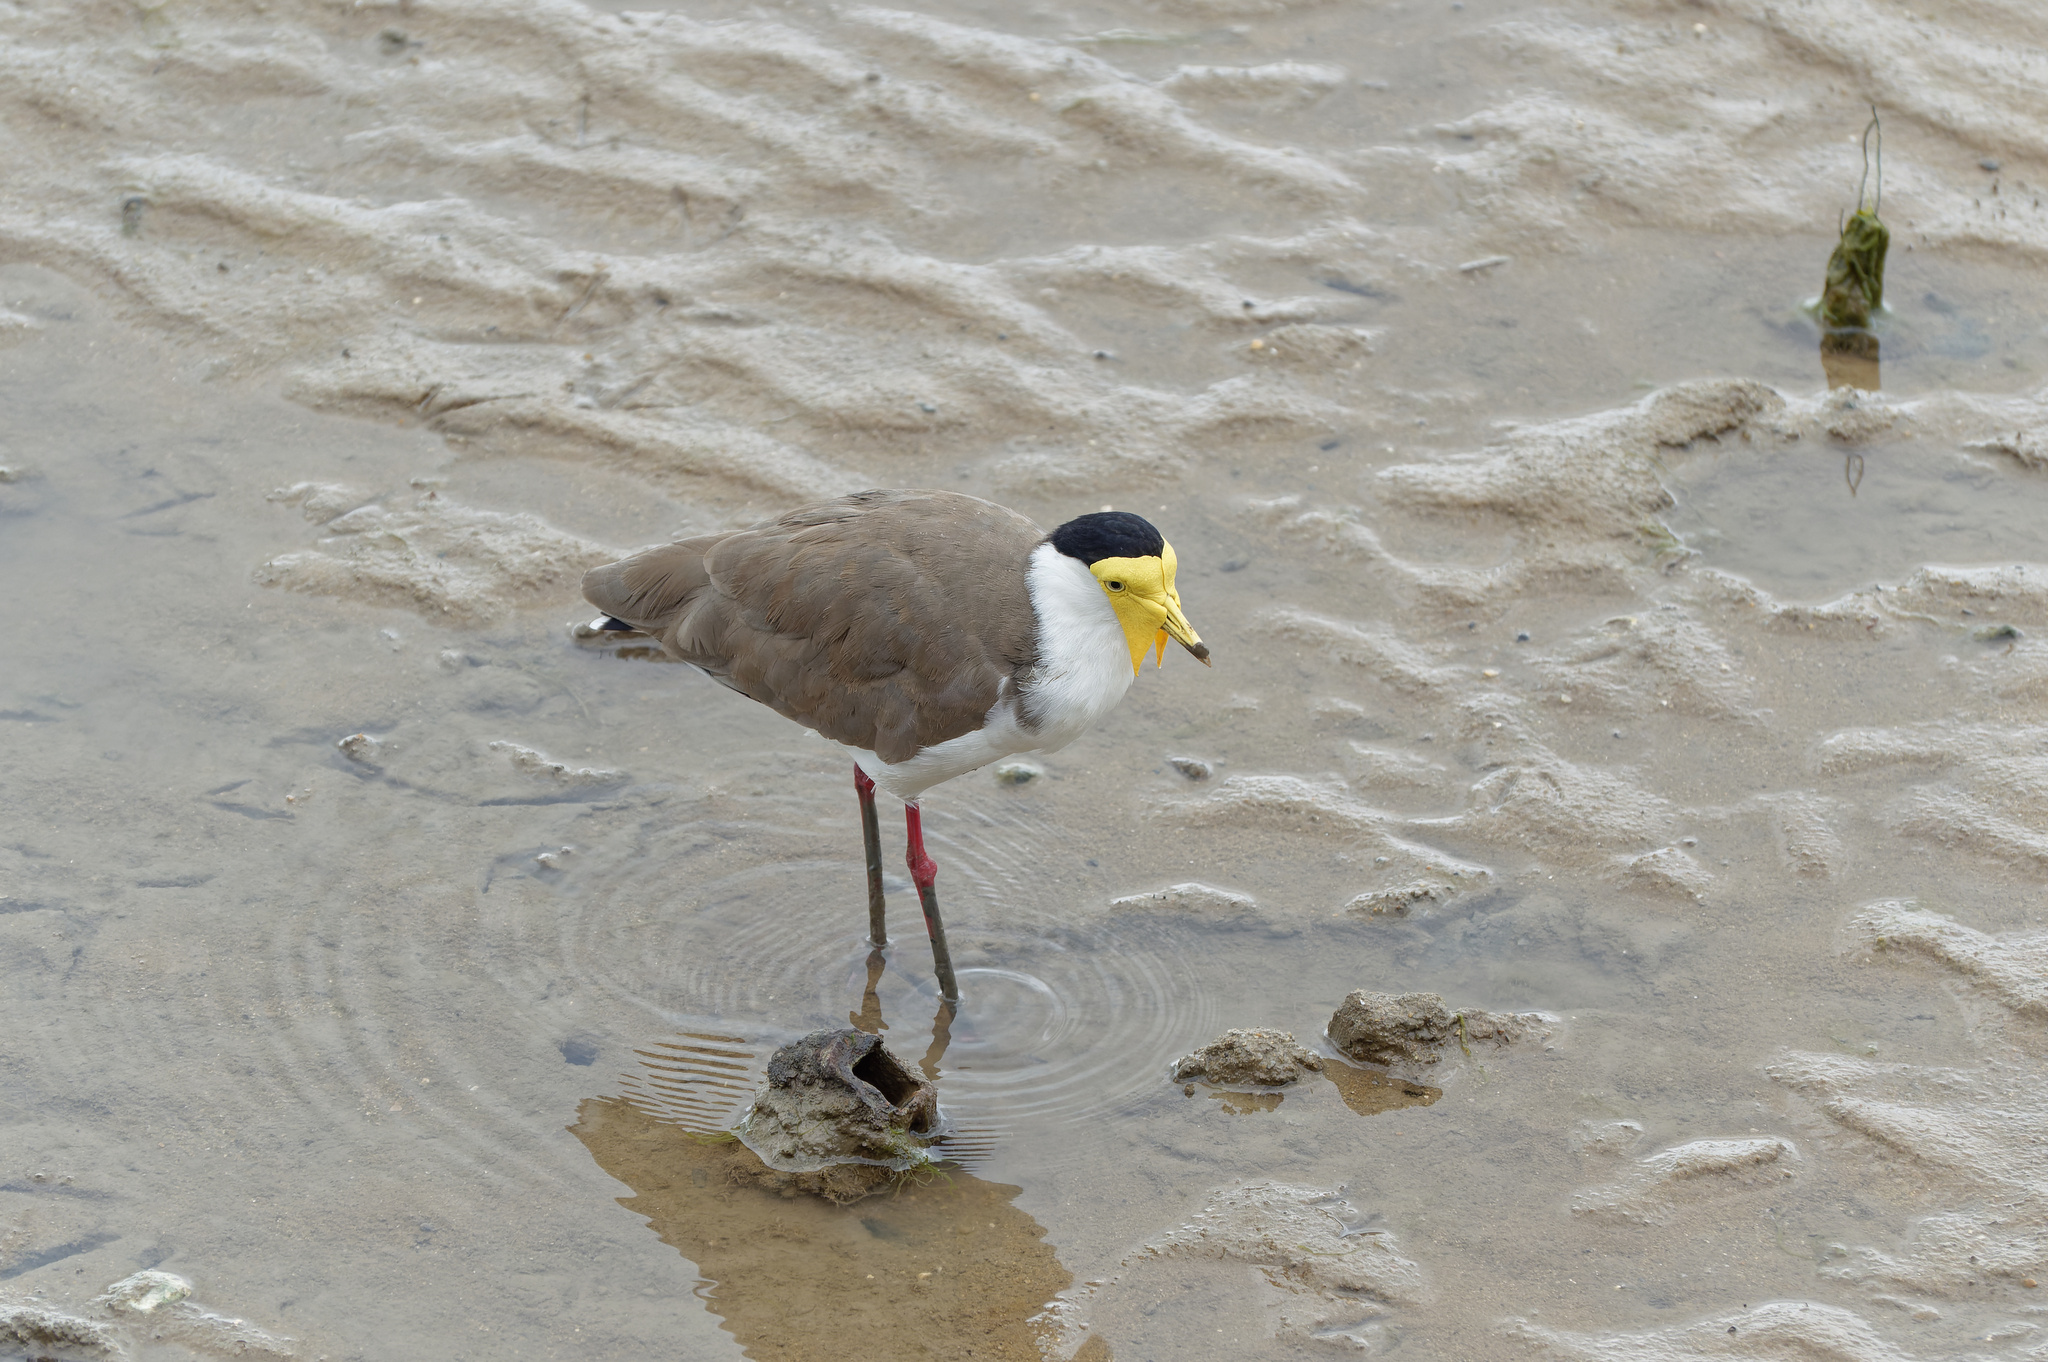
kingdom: Animalia
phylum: Chordata
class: Aves
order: Charadriiformes
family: Charadriidae
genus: Vanellus
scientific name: Vanellus miles
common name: Masked lapwing
